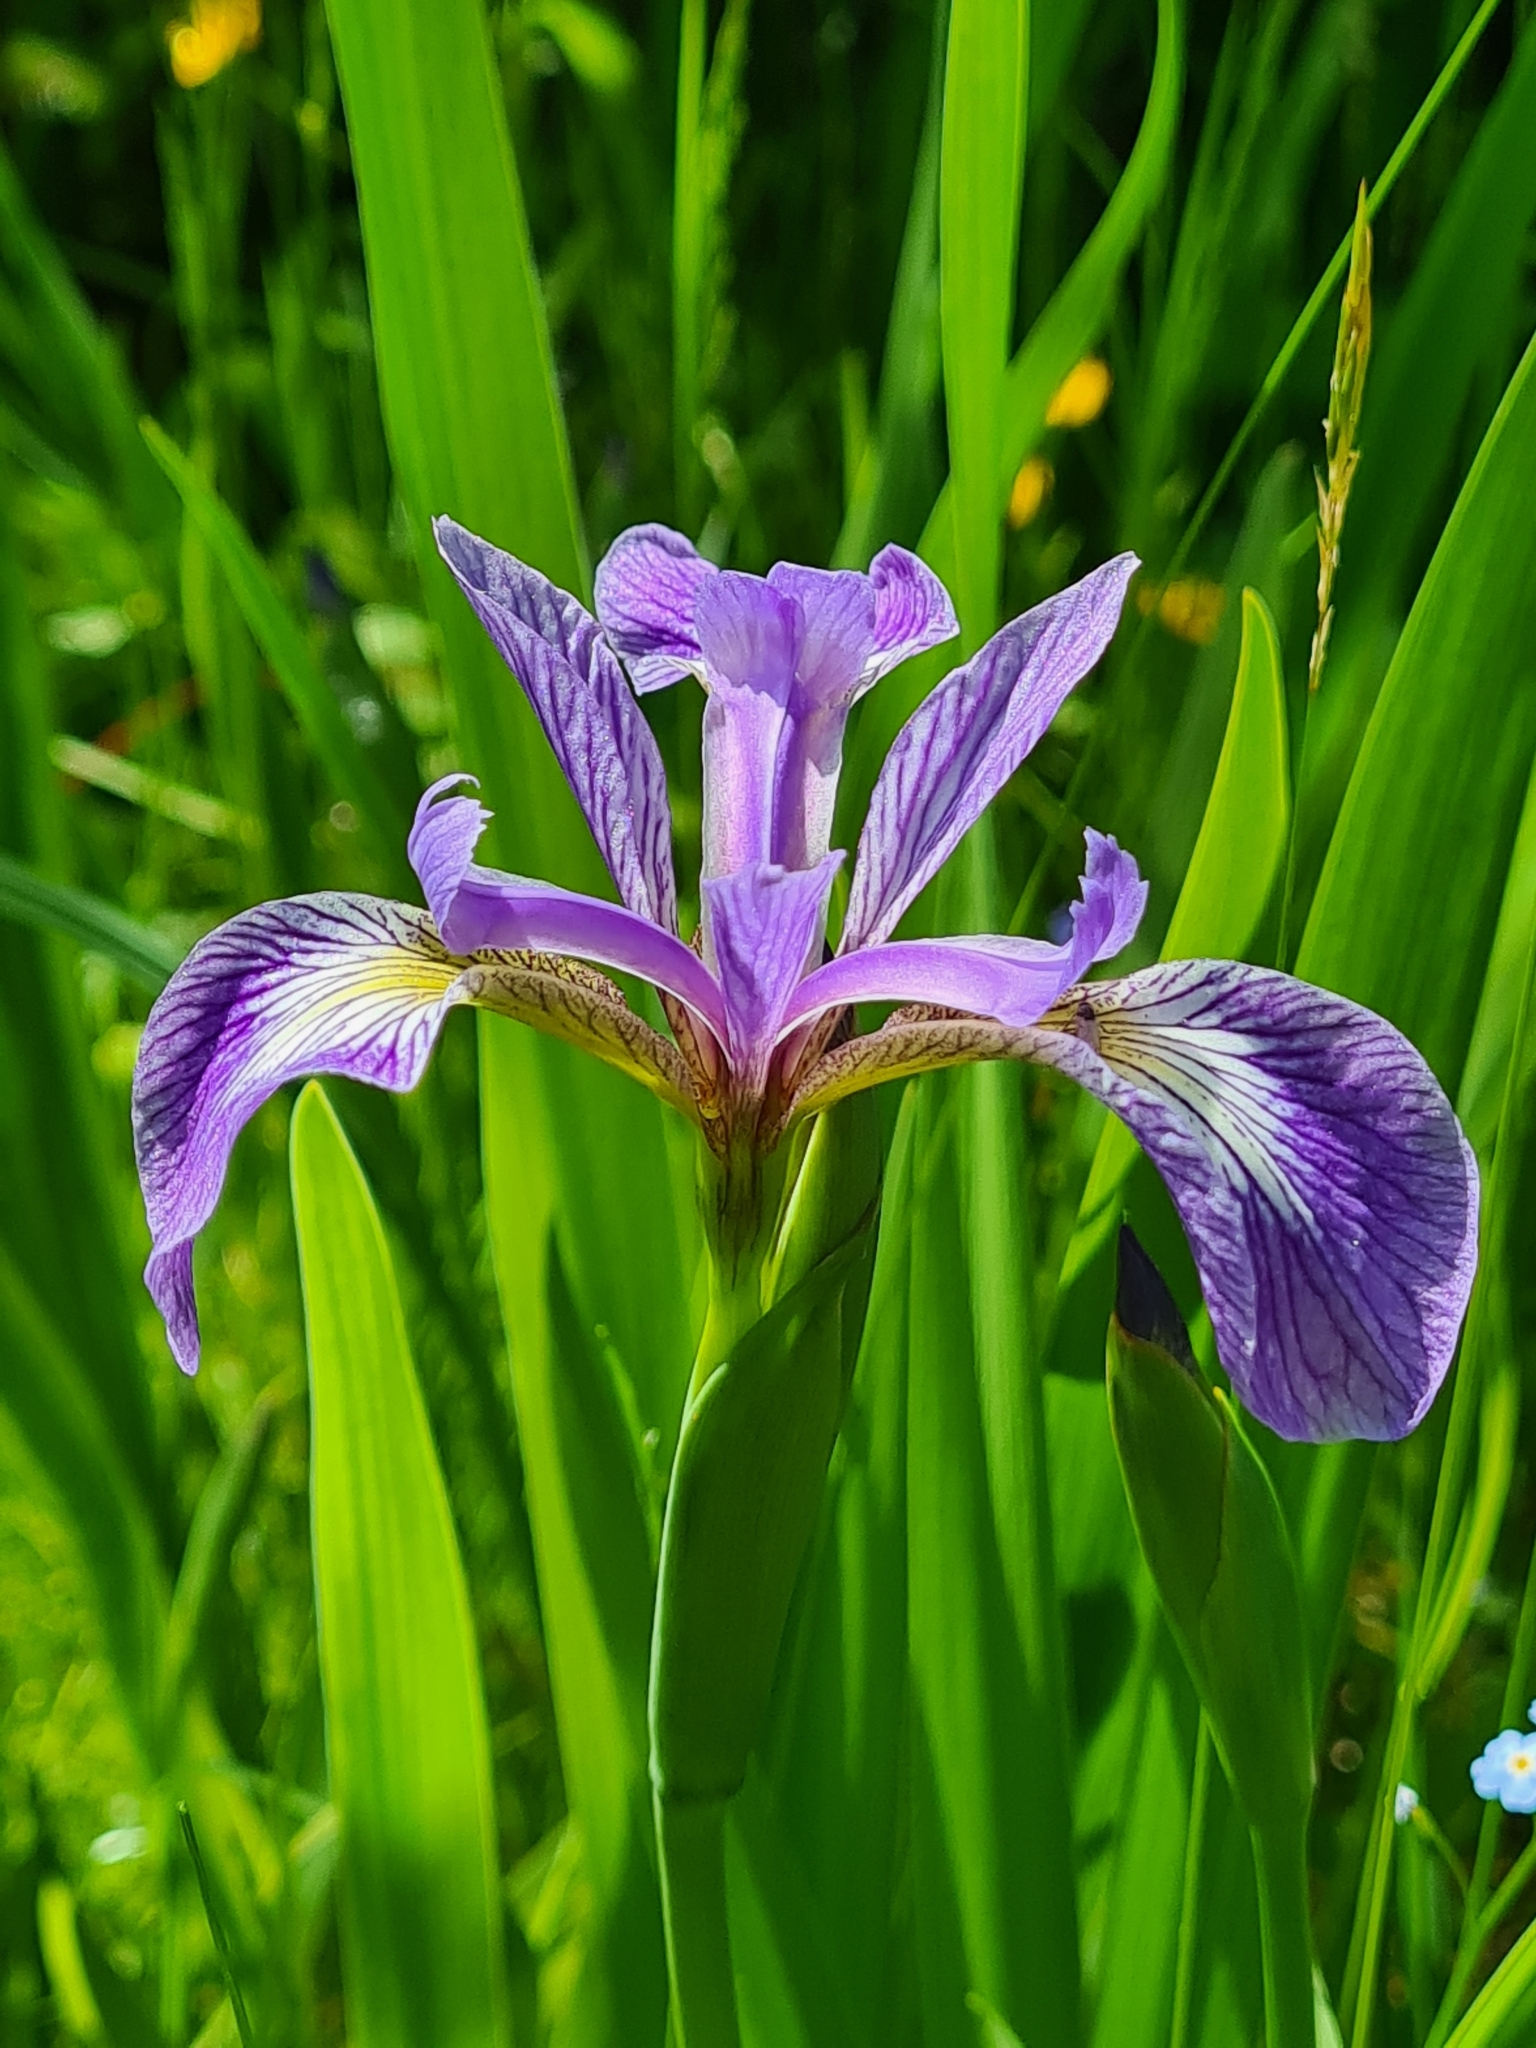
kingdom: Plantae
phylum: Tracheophyta
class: Liliopsida
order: Asparagales
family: Iridaceae
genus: Iris
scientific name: Iris versicolor
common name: Purple iris
